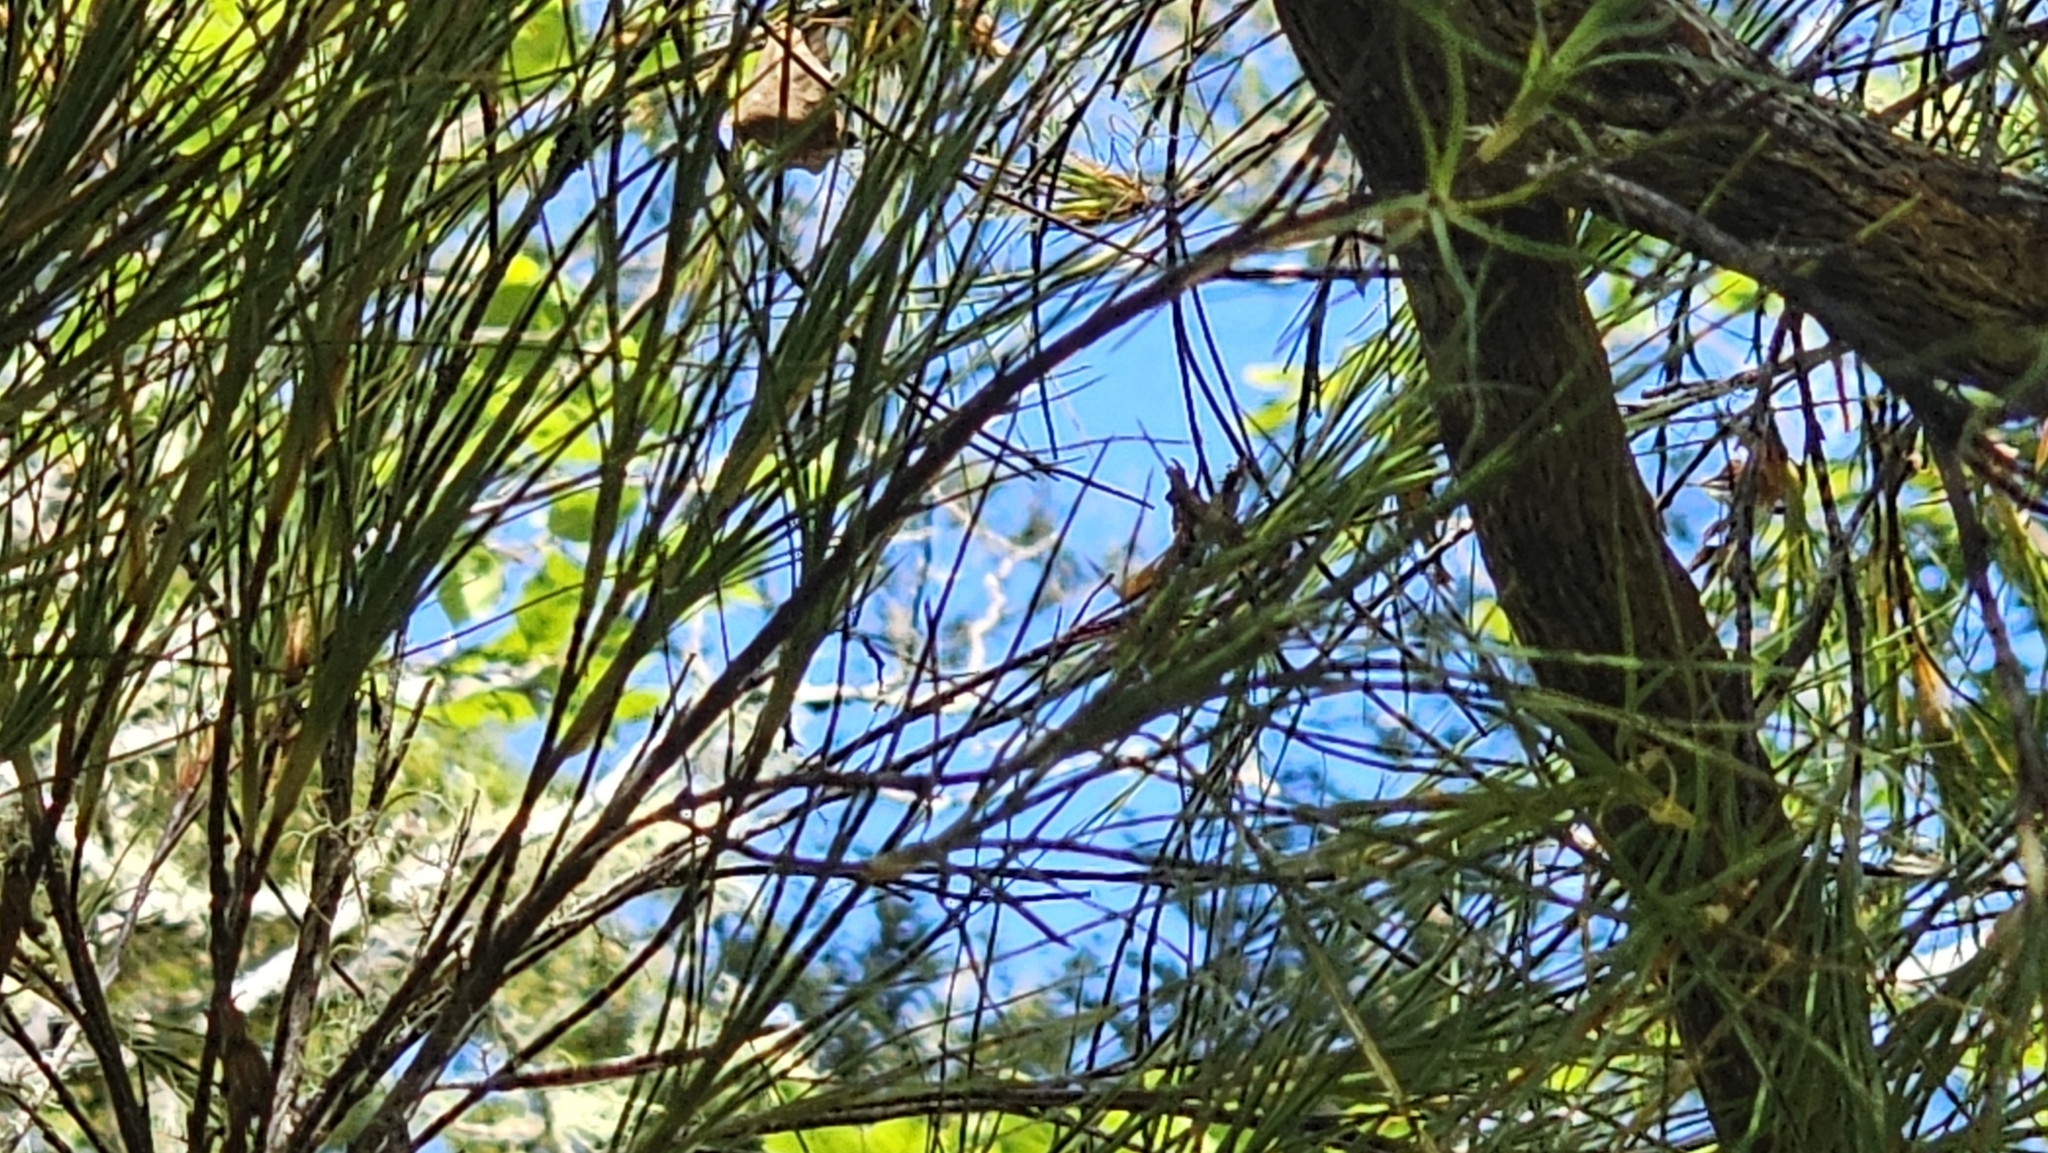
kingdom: Plantae
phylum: Tracheophyta
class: Magnoliopsida
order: Ericales
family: Ericaceae
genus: Dracophyllum
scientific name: Dracophyllum longifolium
